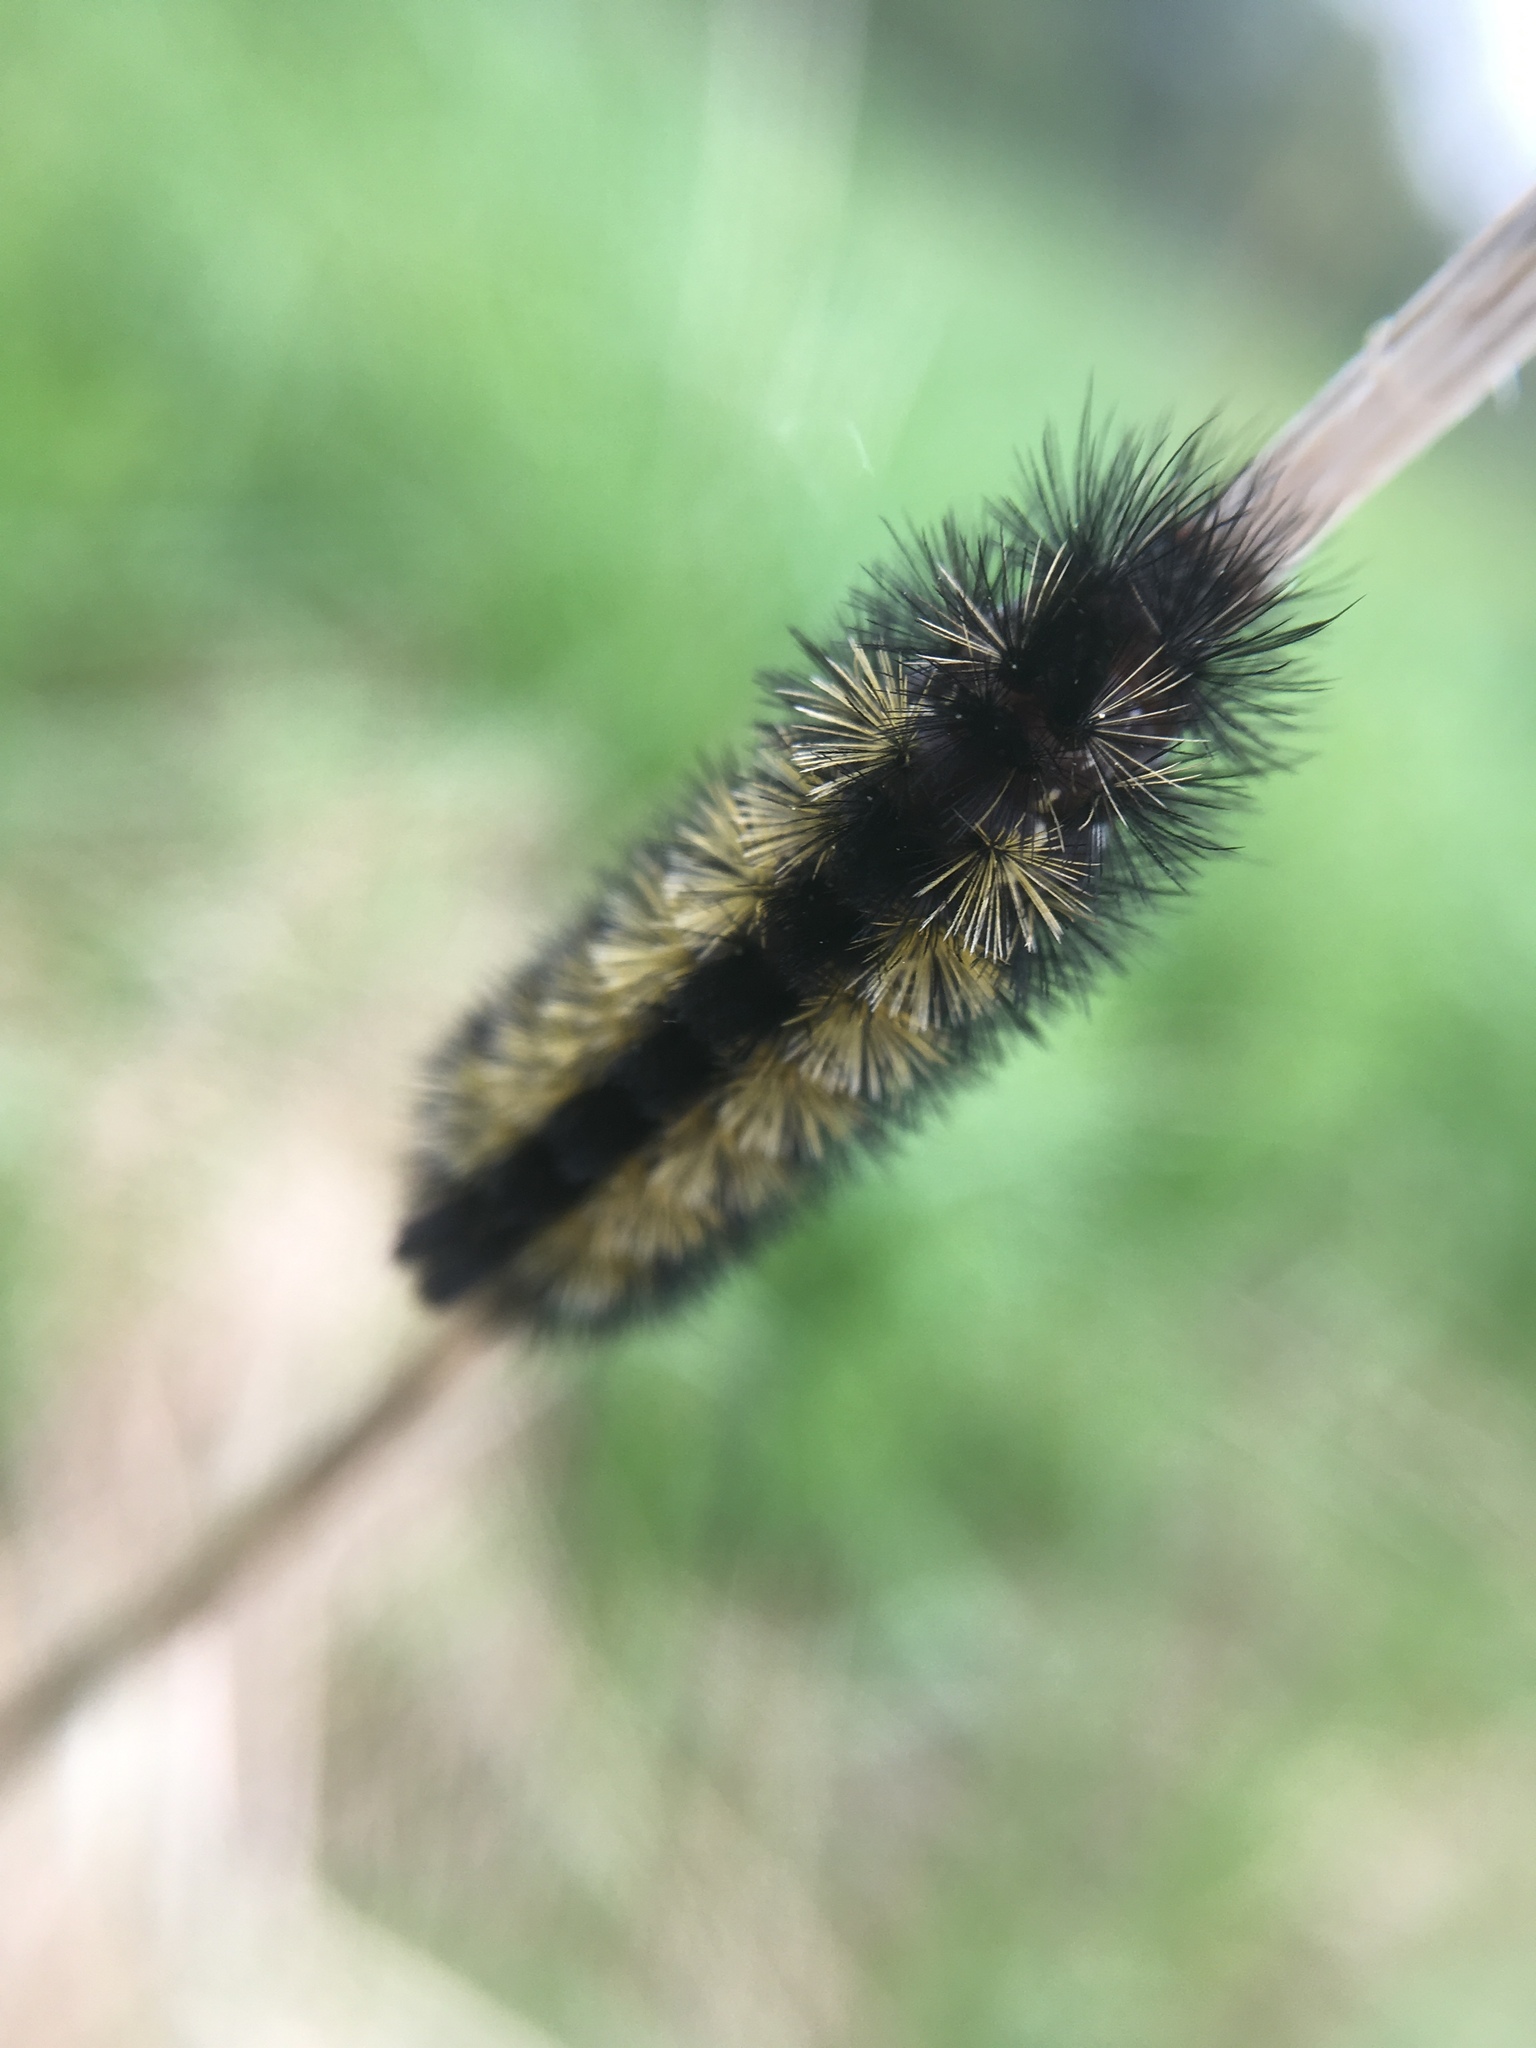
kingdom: Animalia
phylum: Arthropoda
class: Insecta
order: Lepidoptera
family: Erebidae
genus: Ctenucha
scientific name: Ctenucha virginica
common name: Virginia ctenucha moth
